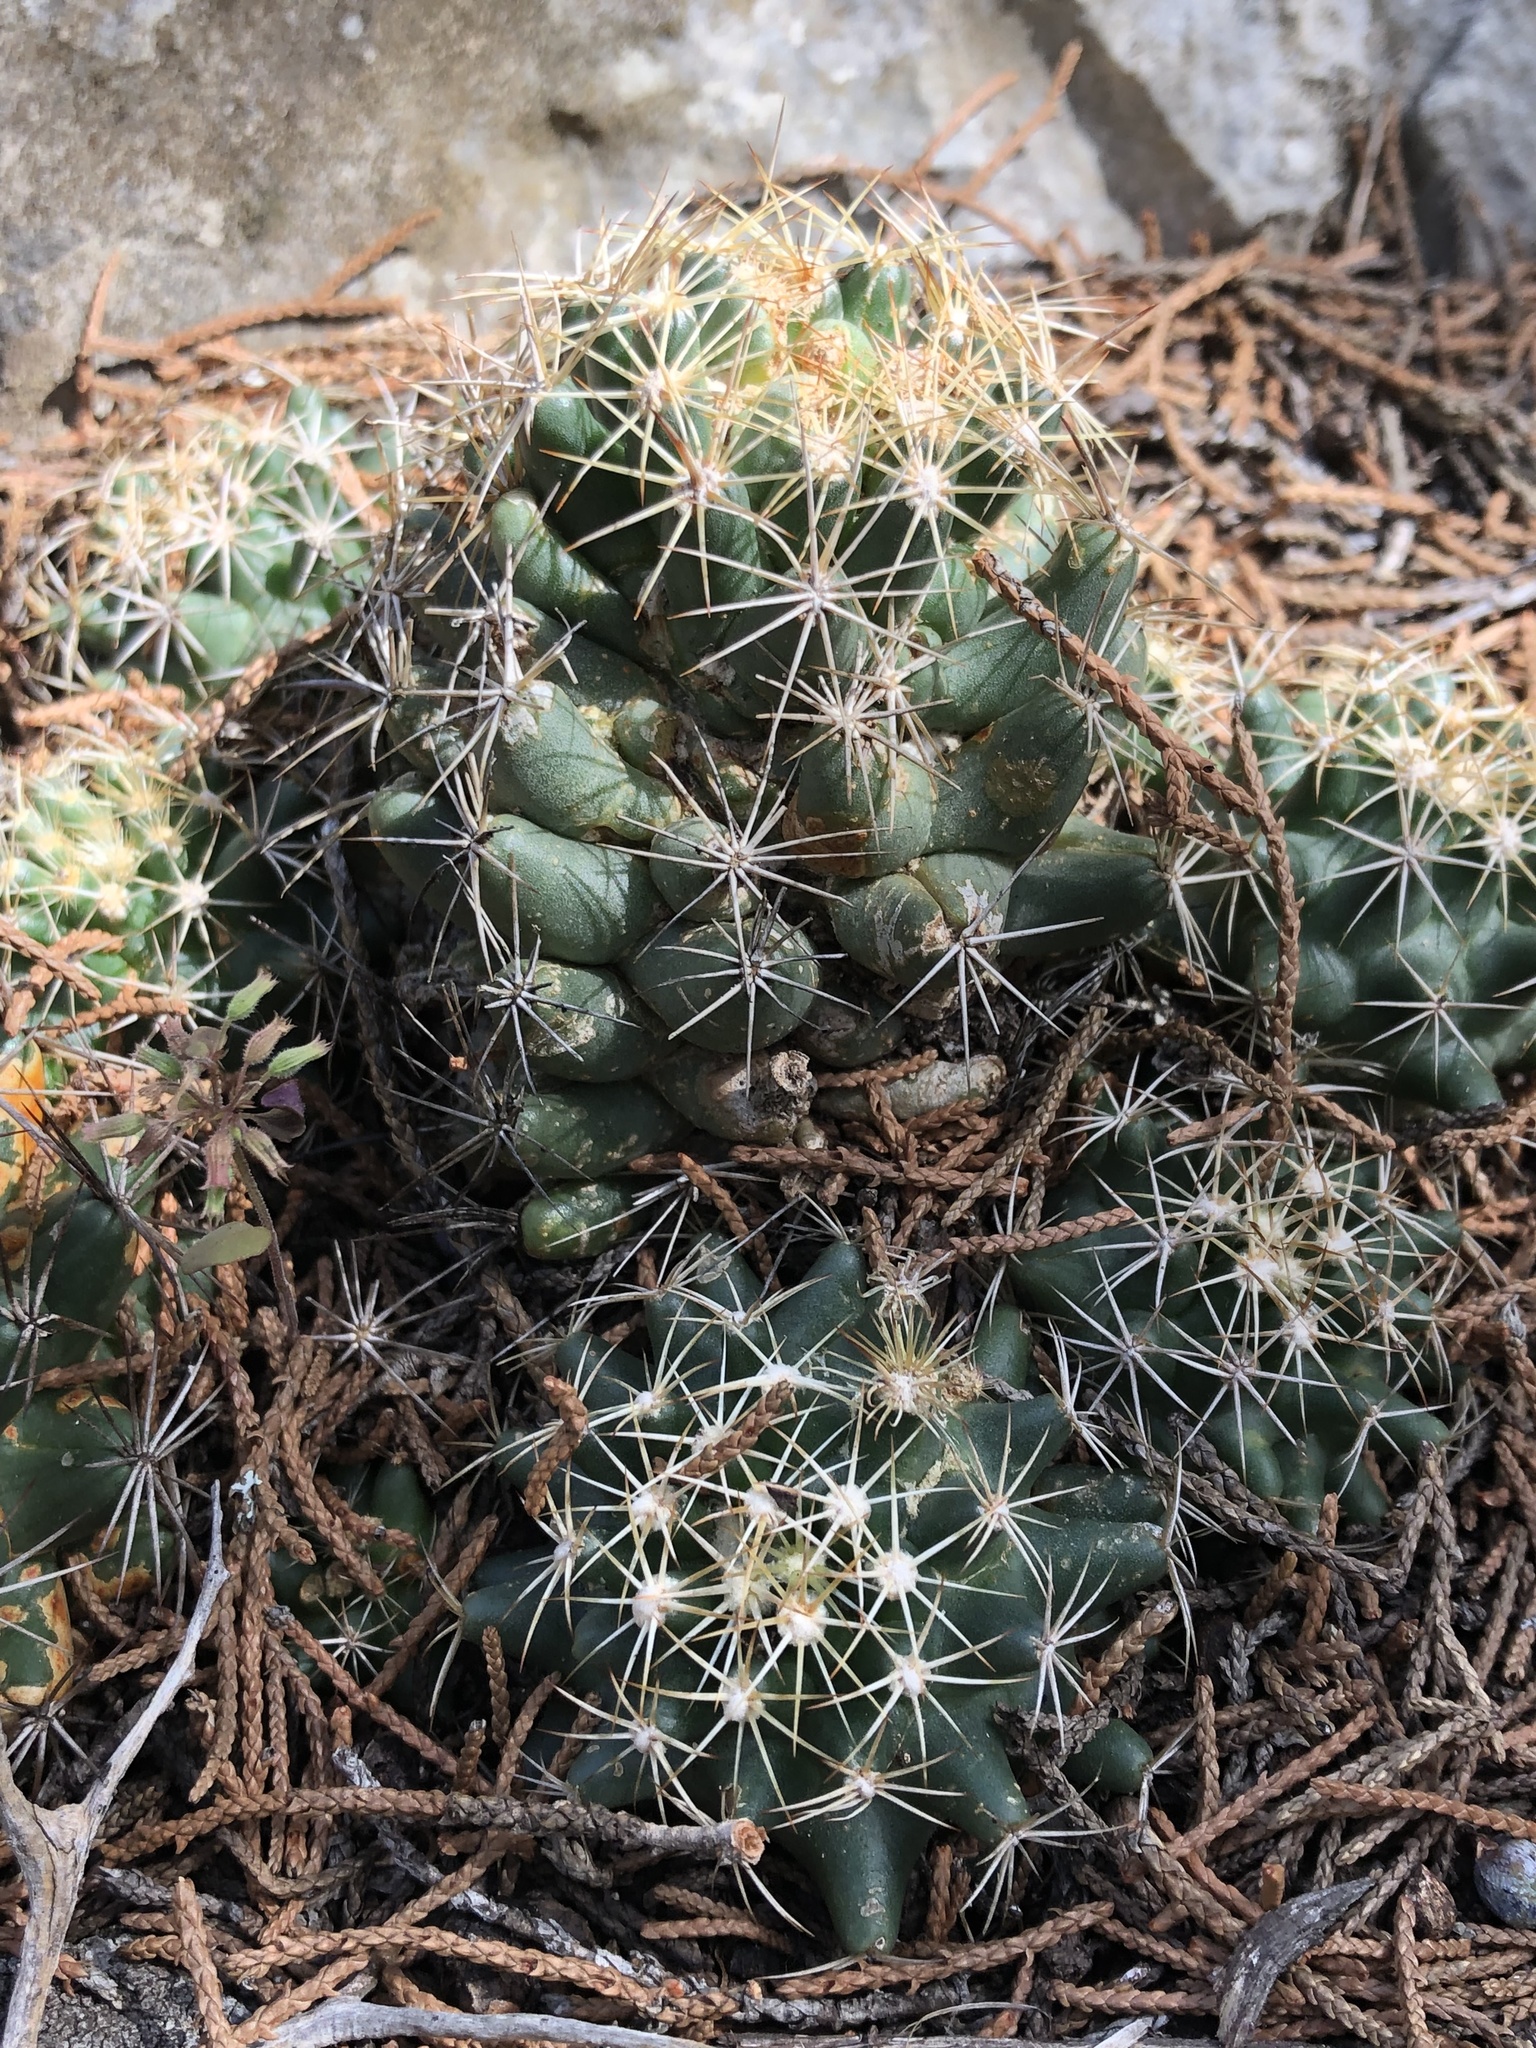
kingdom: Plantae
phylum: Tracheophyta
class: Magnoliopsida
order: Caryophyllales
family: Cactaceae
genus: Coryphantha
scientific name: Coryphantha sulcata
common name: Finger cactus
